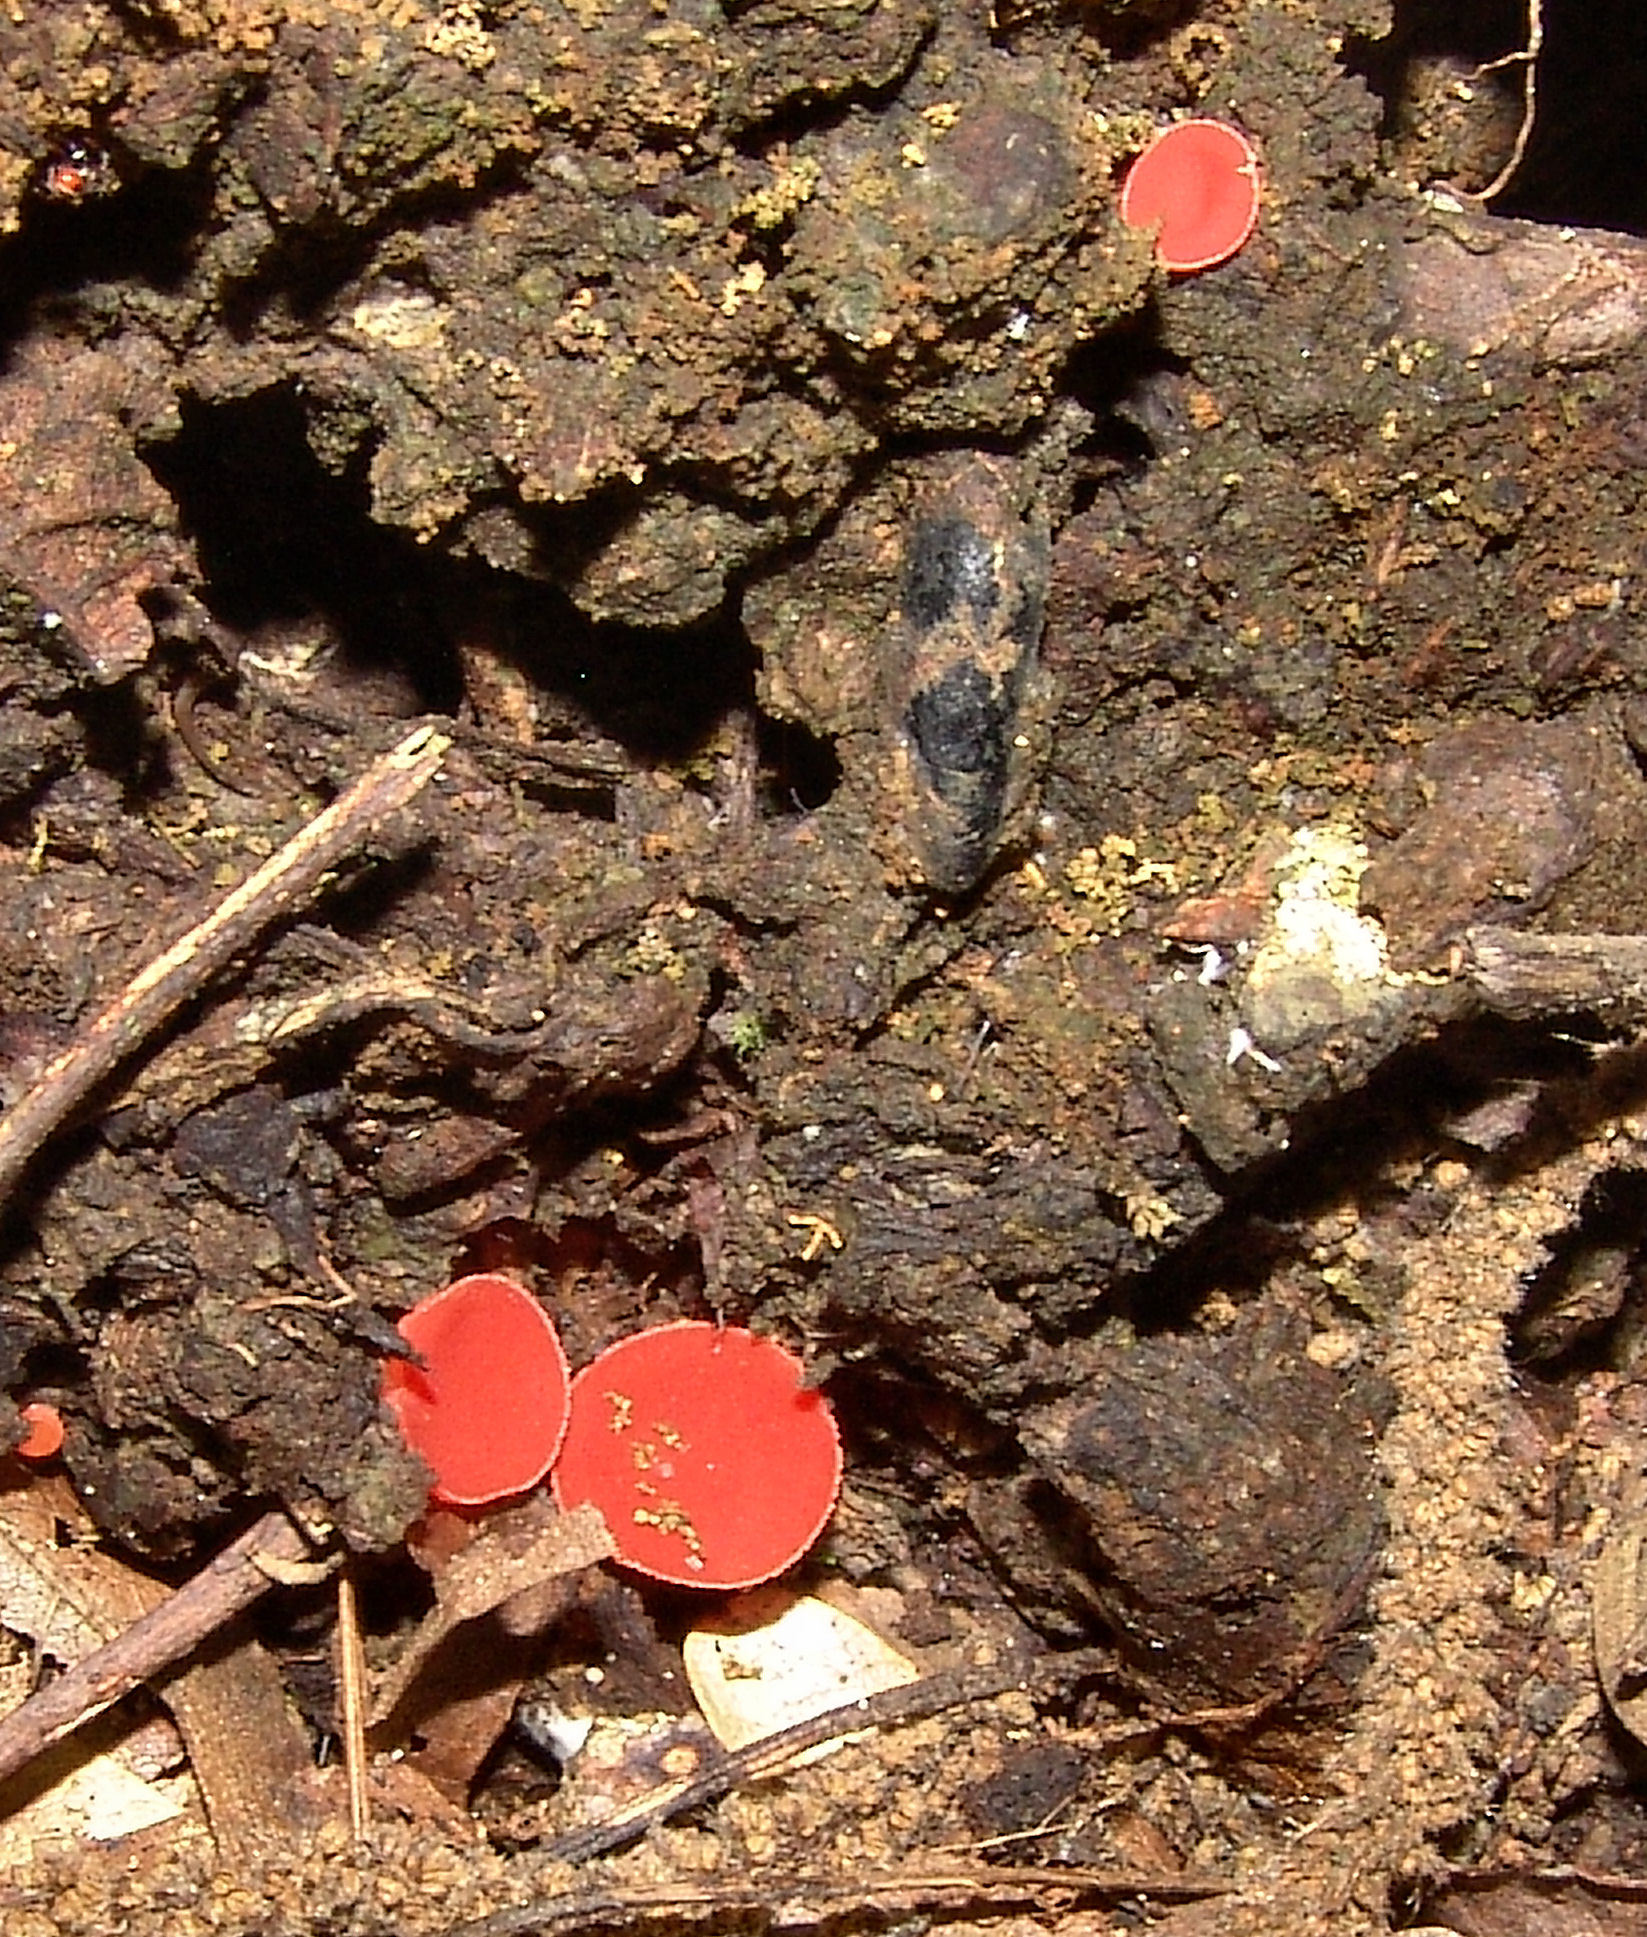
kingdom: Fungi
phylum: Ascomycota
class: Pezizomycetes
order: Pezizales
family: Sarcoscyphaceae
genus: Sarcoscypha
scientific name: Sarcoscypha occidentalis
